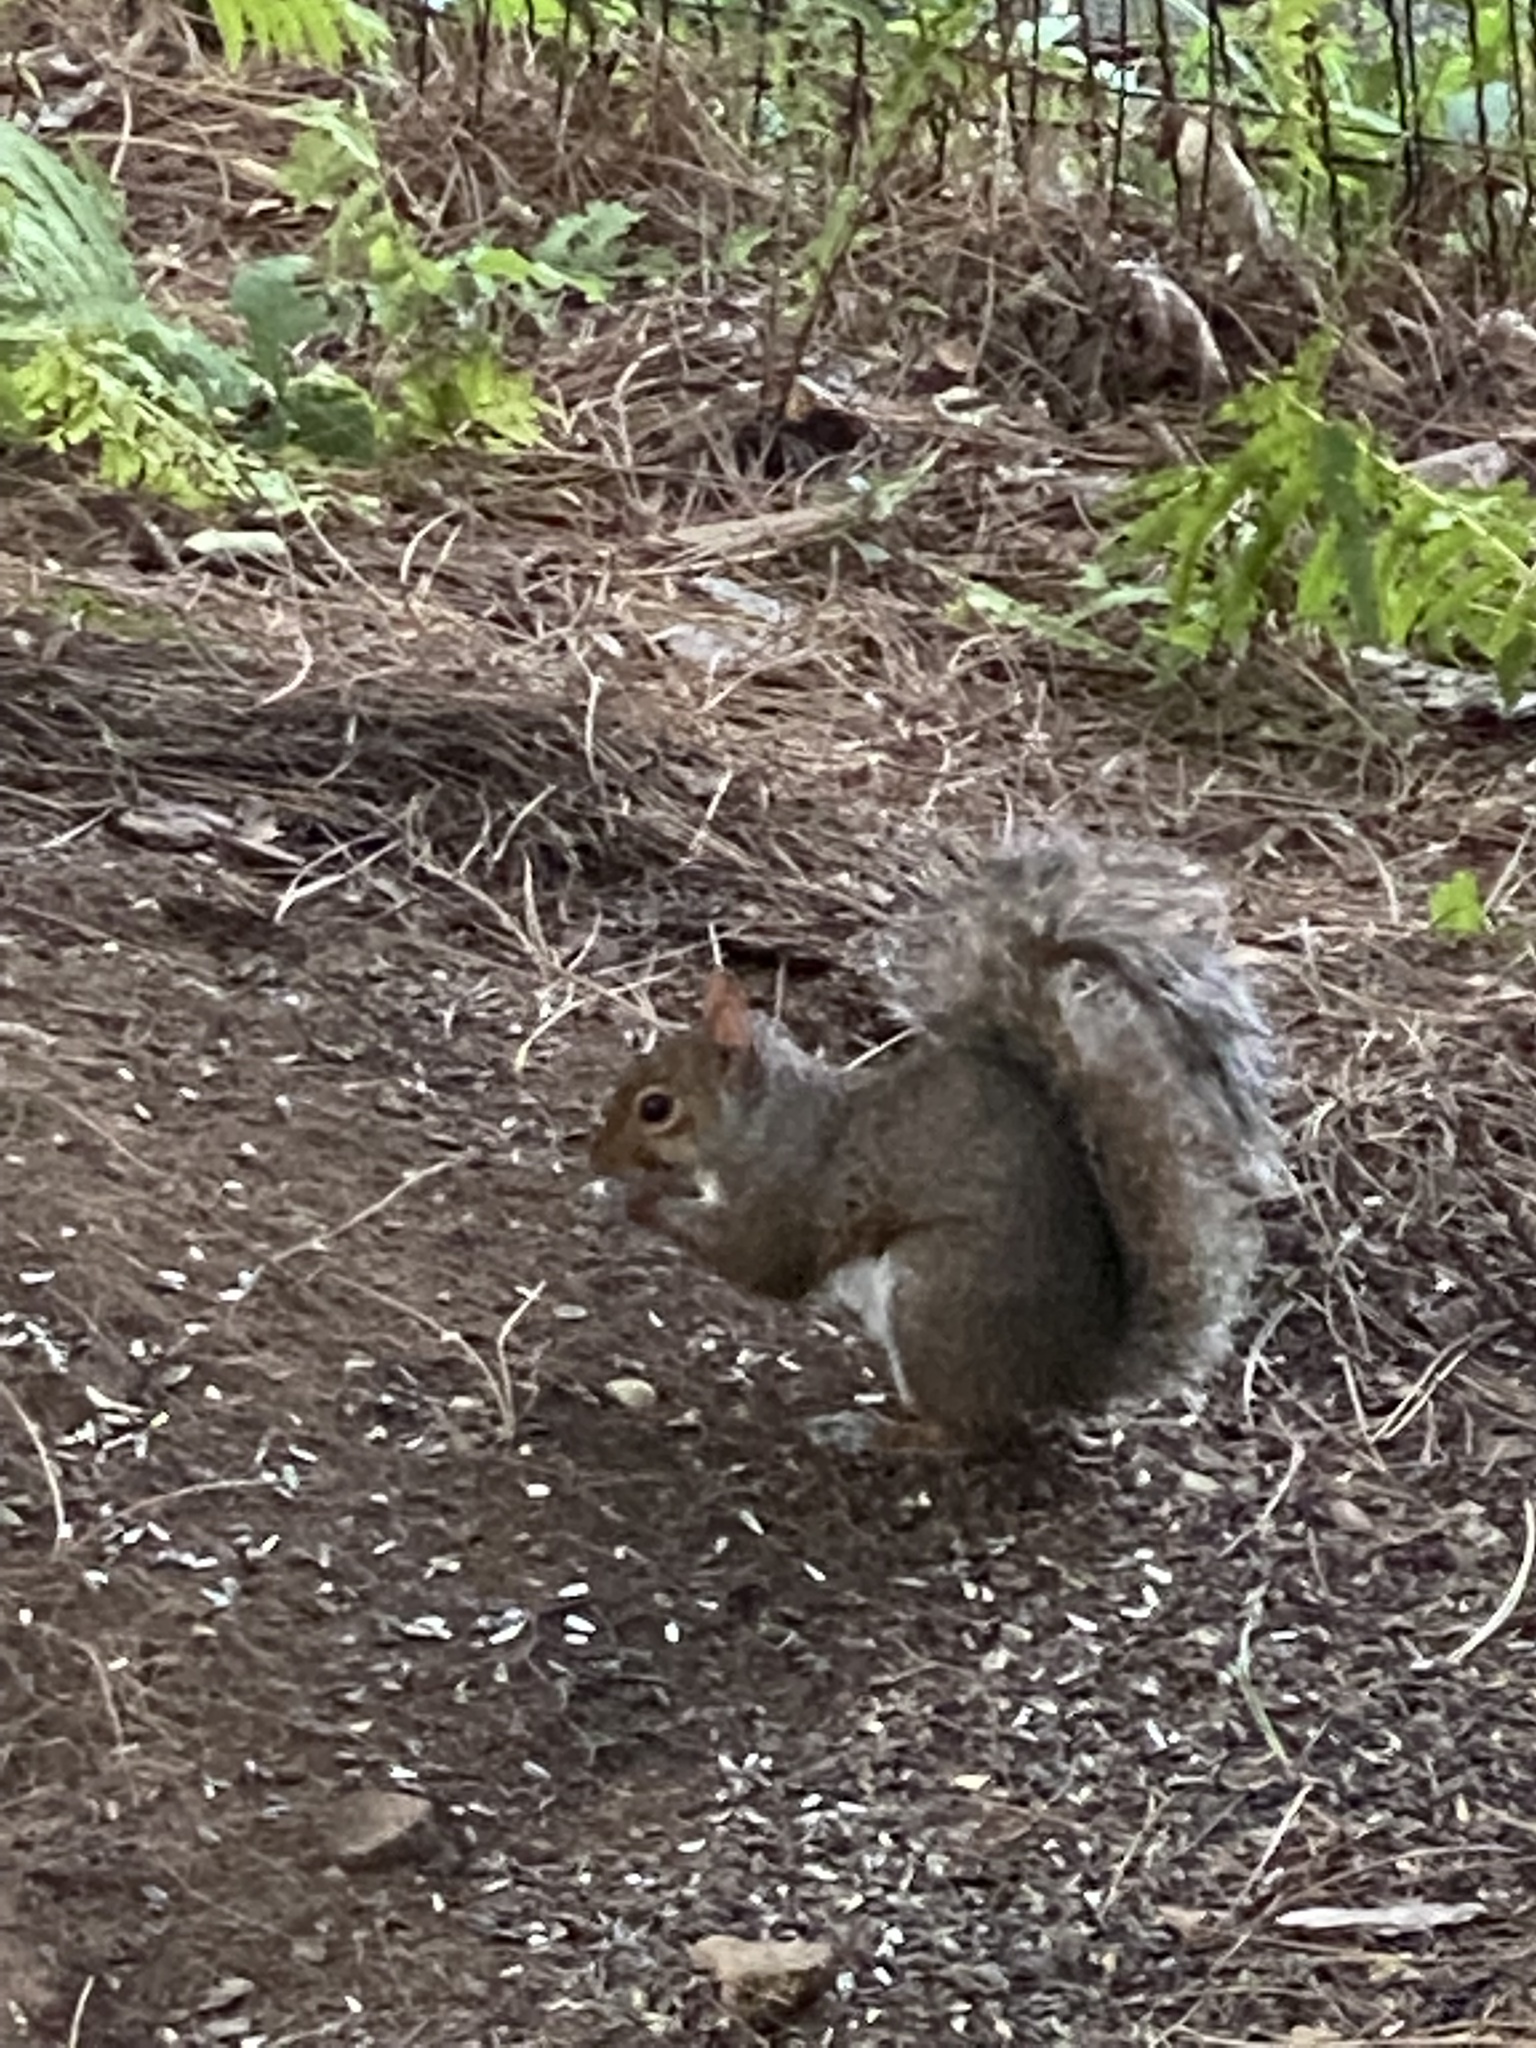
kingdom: Animalia
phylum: Chordata
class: Mammalia
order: Rodentia
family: Sciuridae
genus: Sciurus
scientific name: Sciurus carolinensis
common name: Eastern gray squirrel
